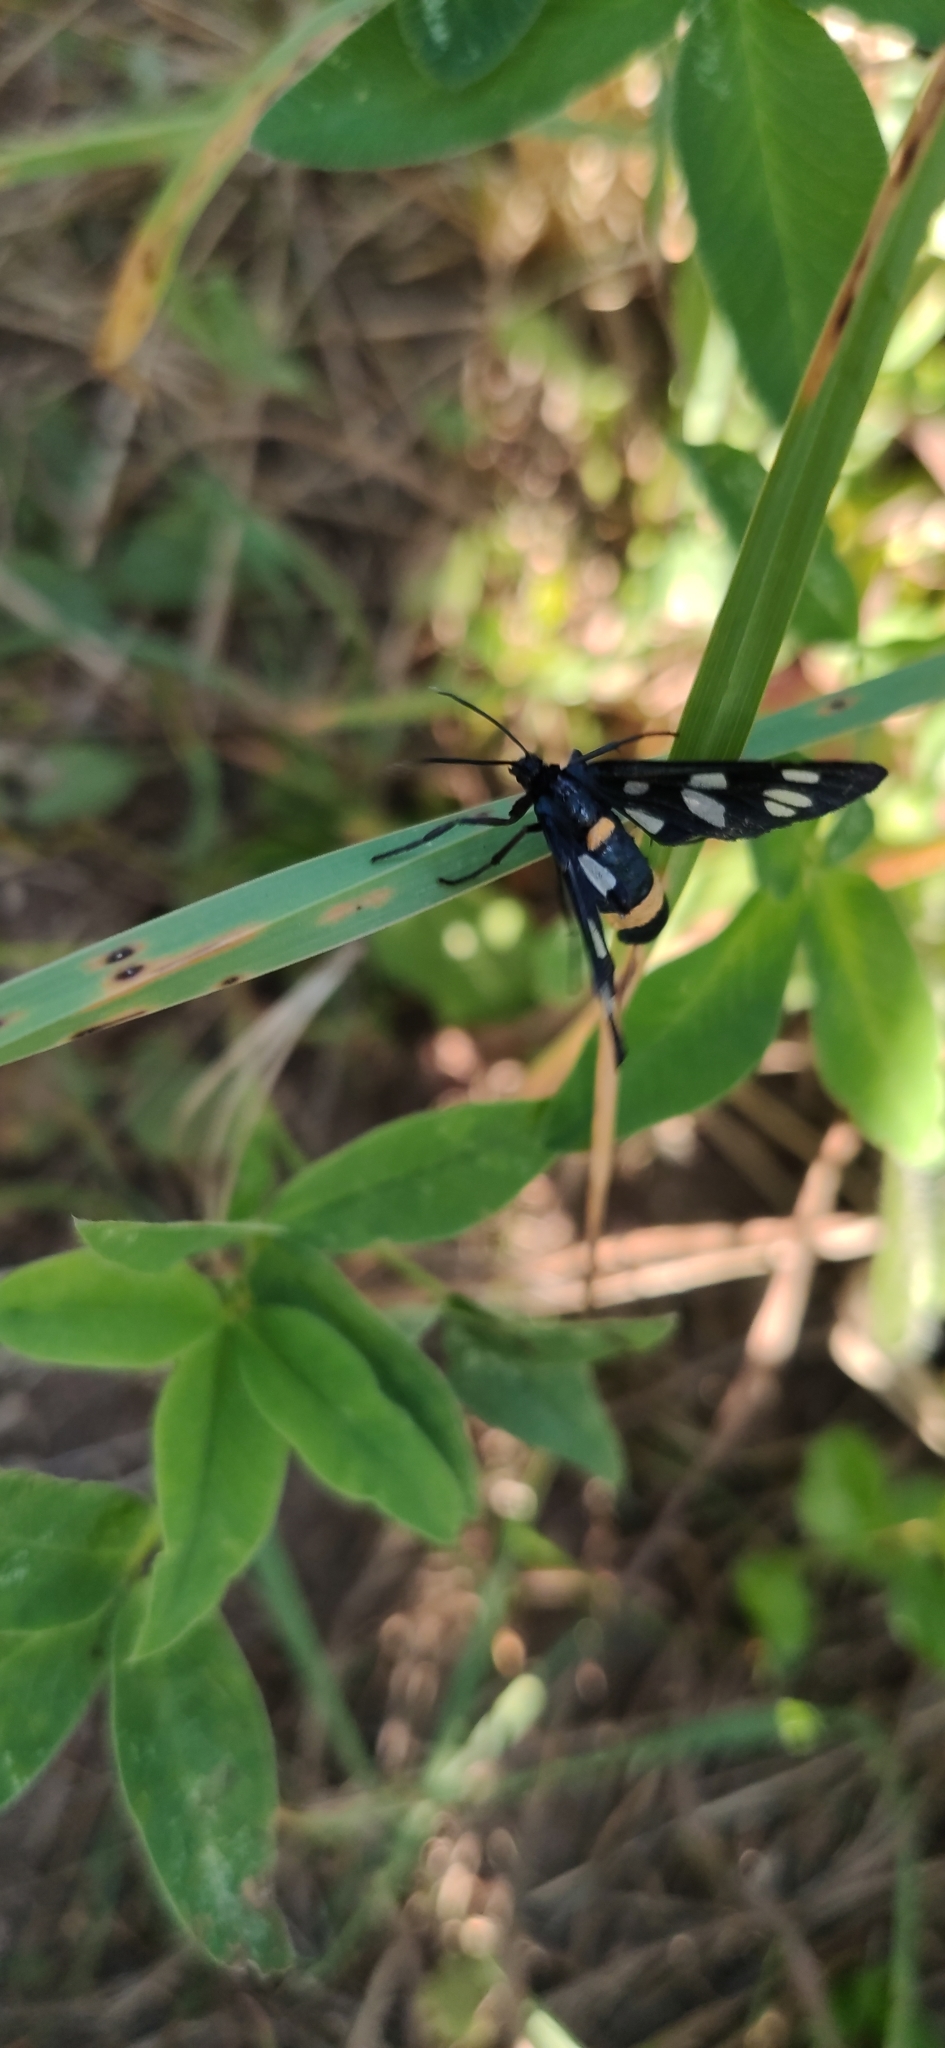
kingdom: Animalia
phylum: Arthropoda
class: Insecta
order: Lepidoptera
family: Erebidae
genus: Amata
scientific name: Amata nigricornis
